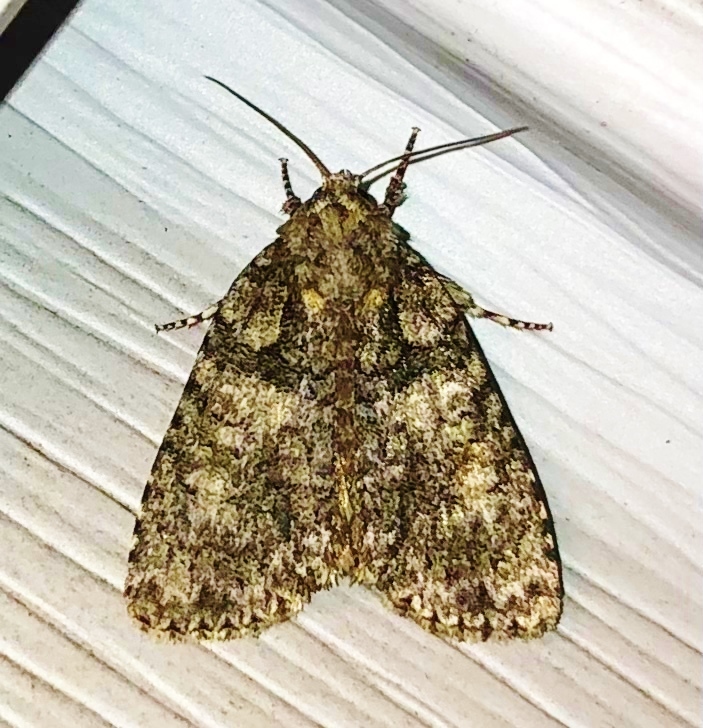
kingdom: Animalia
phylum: Arthropoda
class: Insecta
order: Lepidoptera
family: Noctuidae
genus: Acronicta
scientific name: Acronicta increta
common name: Eclipsed oak dagger
